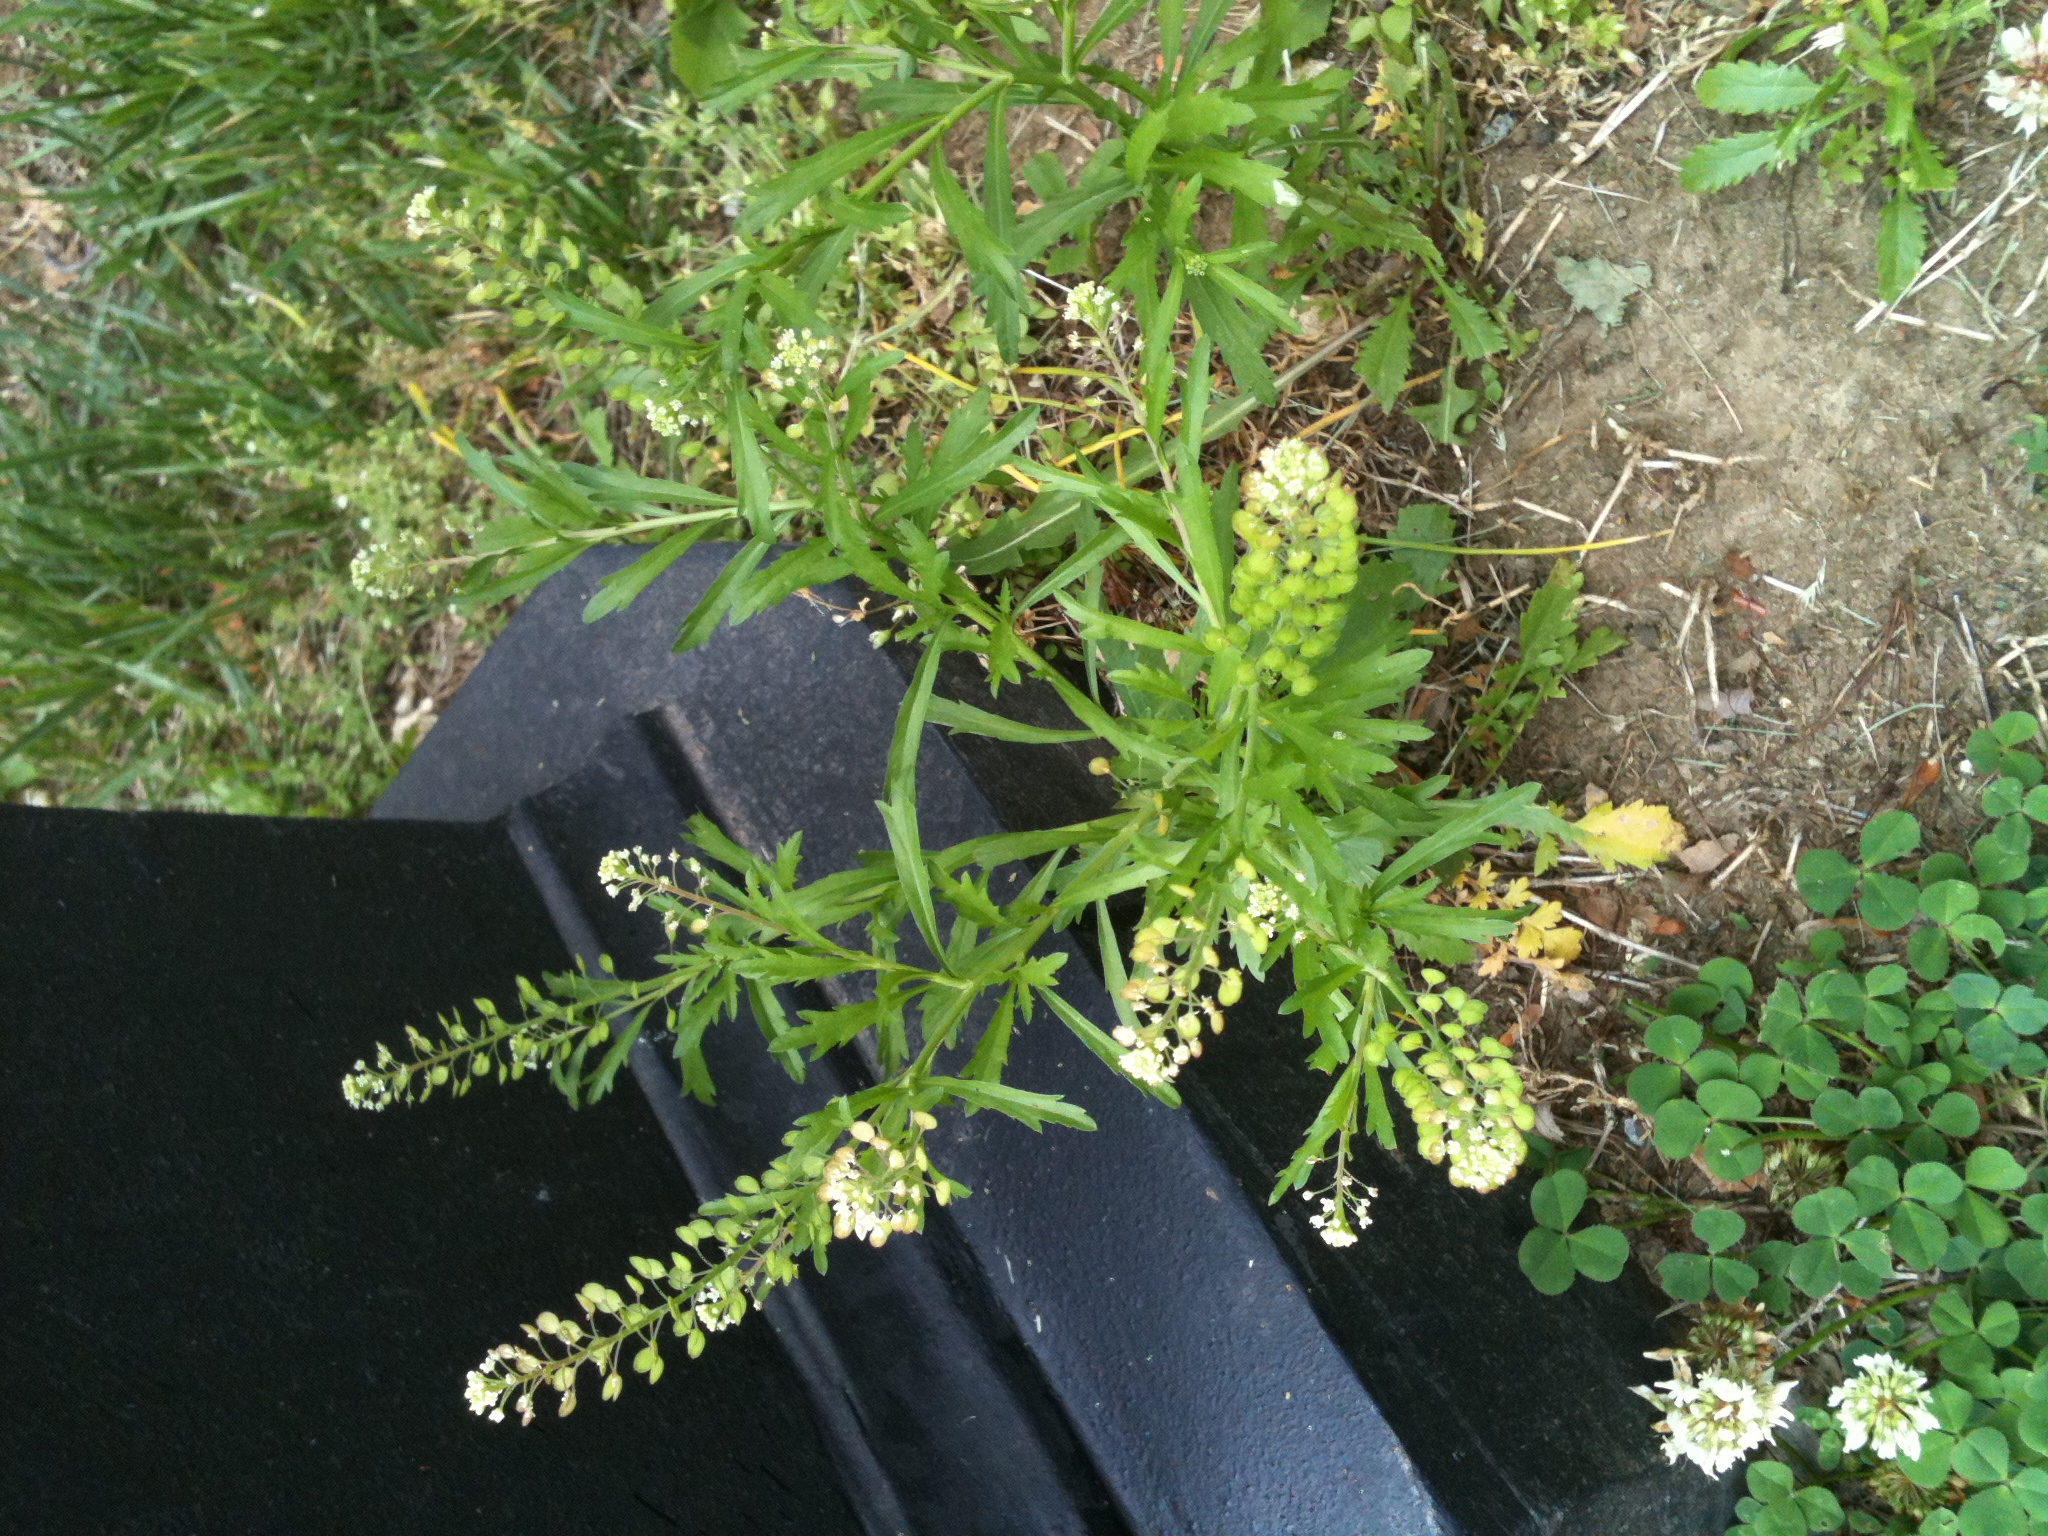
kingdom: Plantae
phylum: Tracheophyta
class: Magnoliopsida
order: Brassicales
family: Brassicaceae
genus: Lepidium
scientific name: Lepidium virginicum
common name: Least pepperwort
